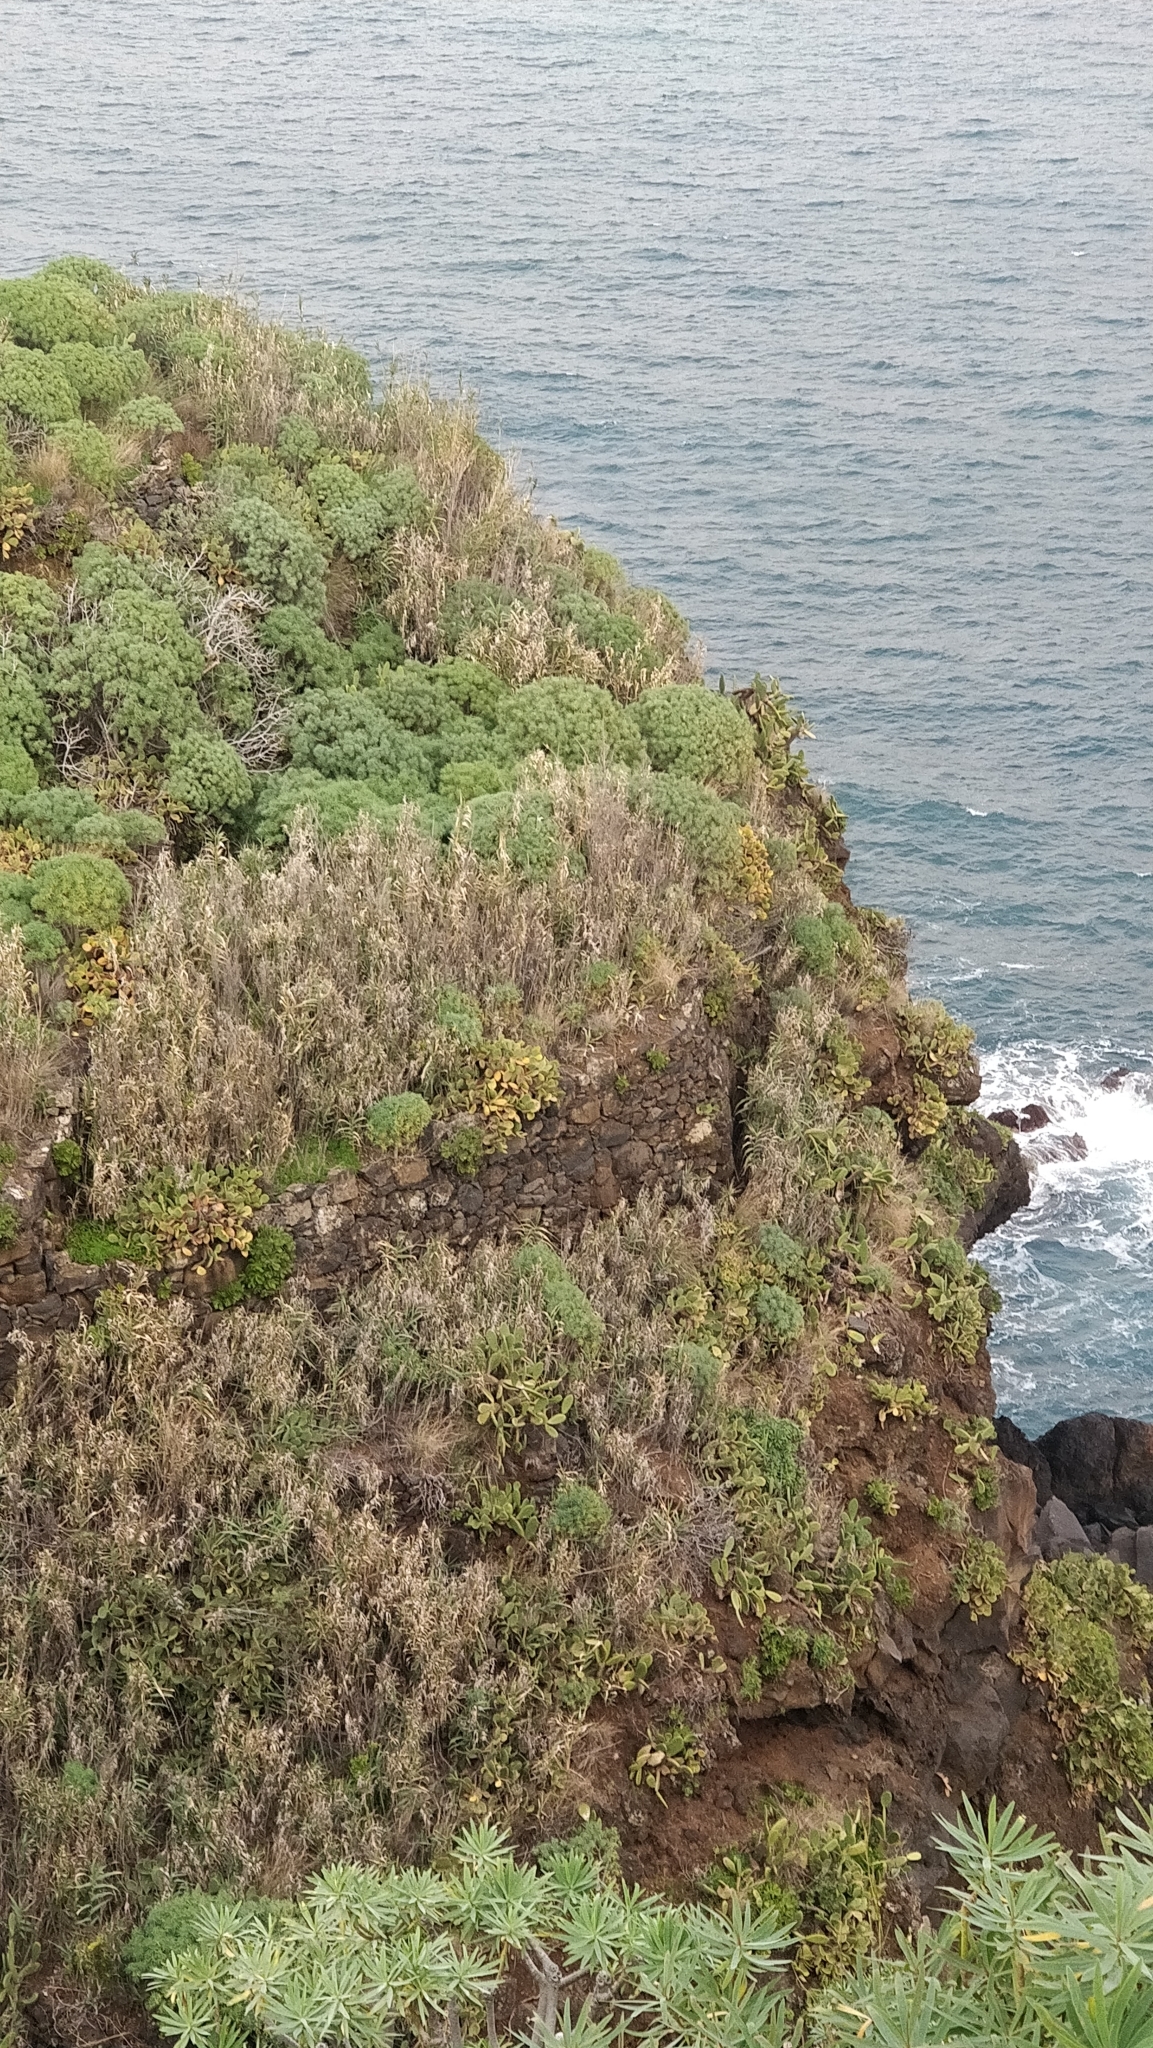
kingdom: Plantae
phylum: Tracheophyta
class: Magnoliopsida
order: Malpighiales
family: Euphorbiaceae
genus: Euphorbia
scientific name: Euphorbia piscatoria
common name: Fish-stunning spurge
